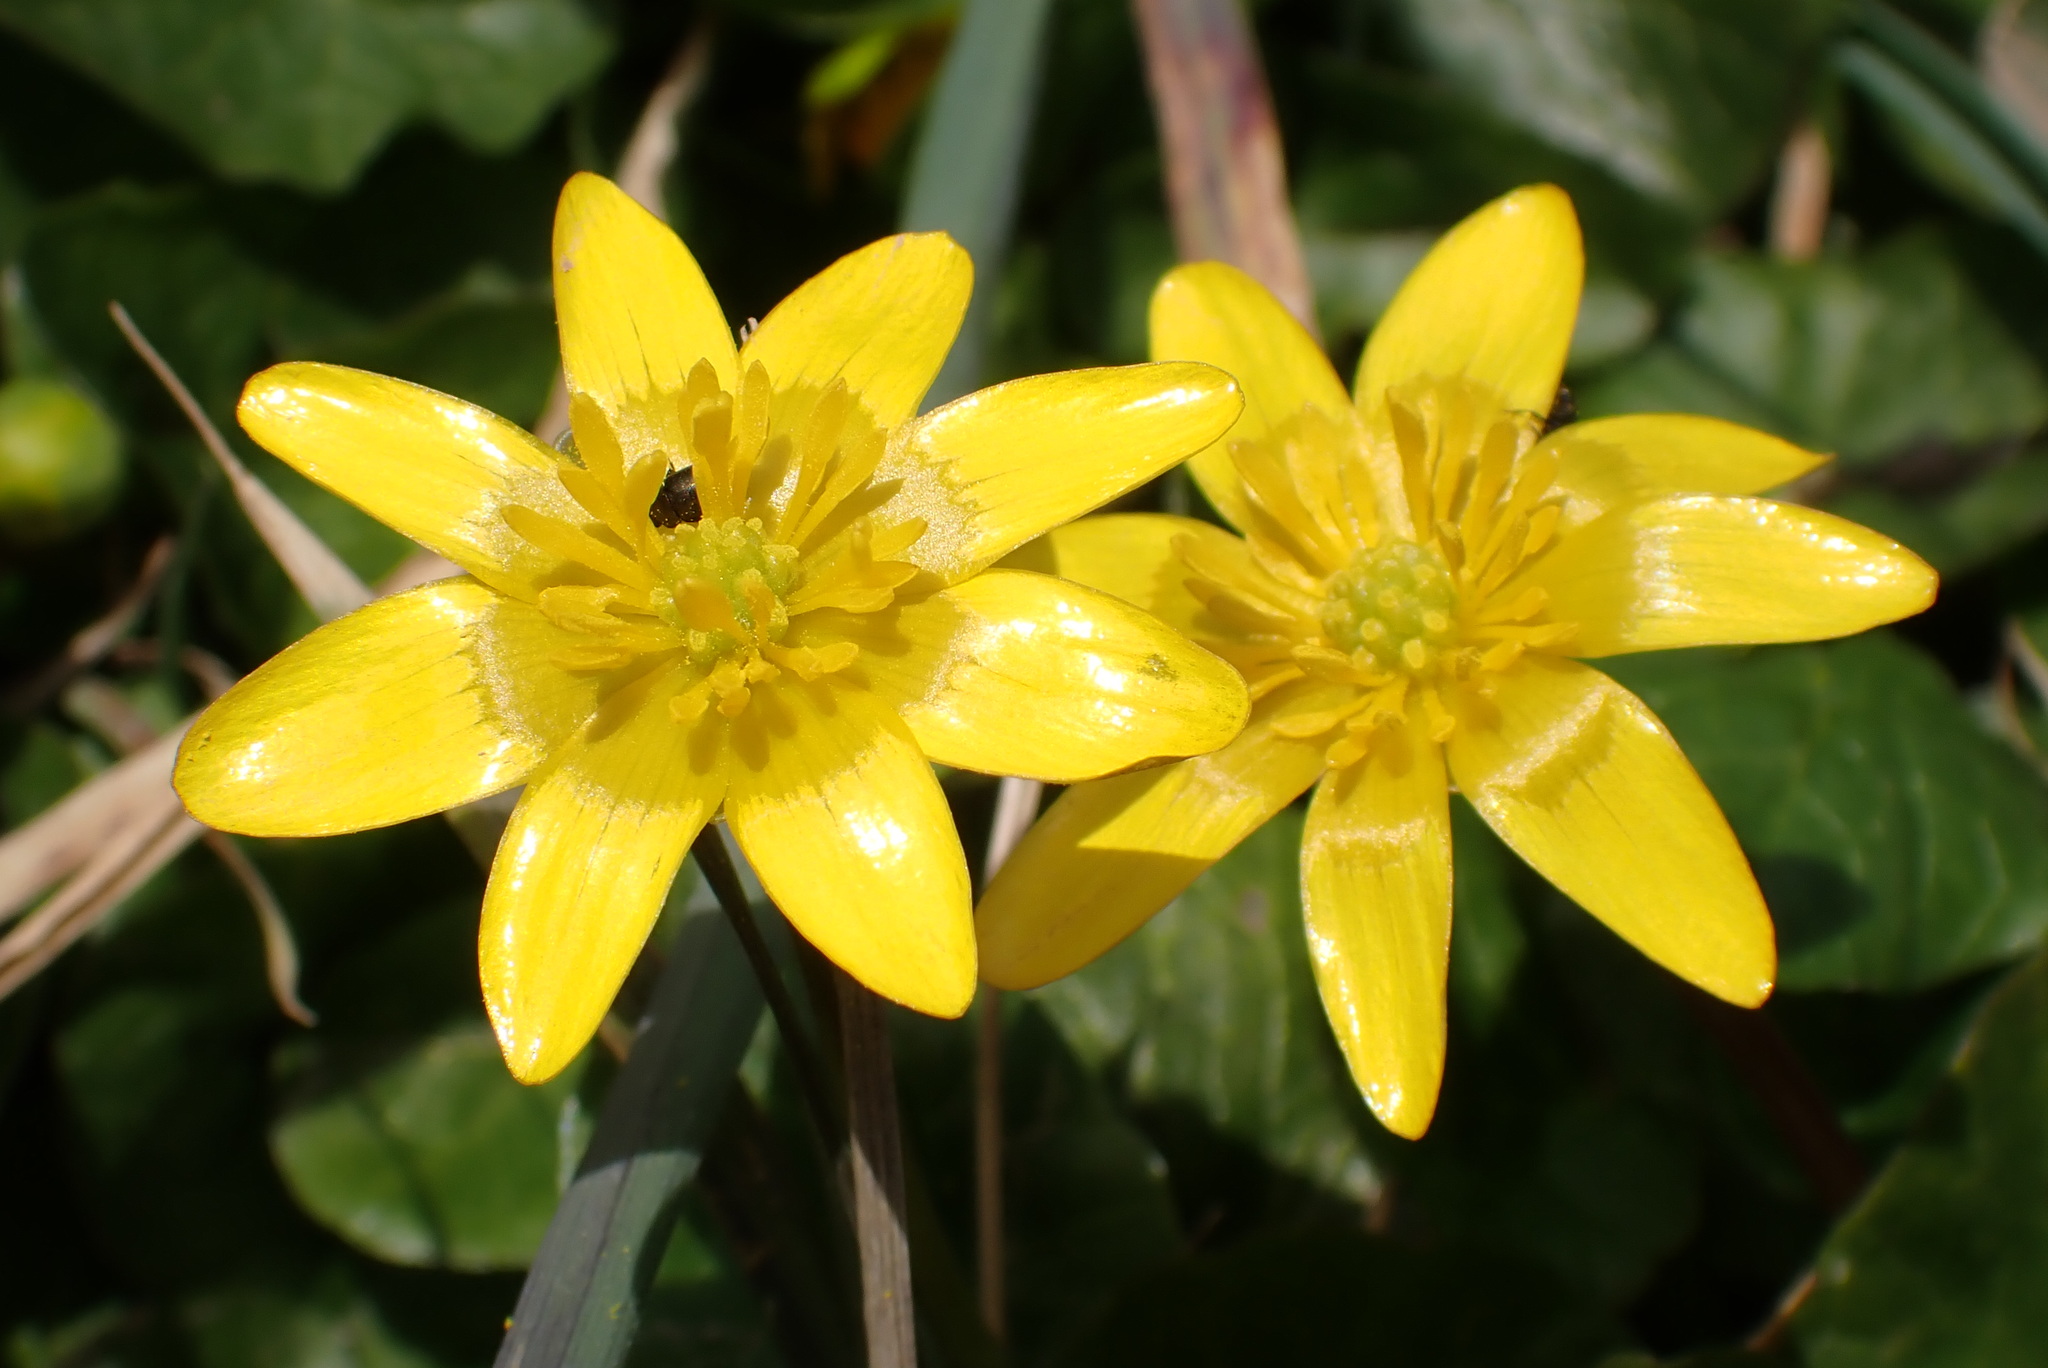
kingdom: Plantae
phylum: Tracheophyta
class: Magnoliopsida
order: Ranunculales
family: Ranunculaceae
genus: Ficaria
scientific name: Ficaria verna
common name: Lesser celandine
